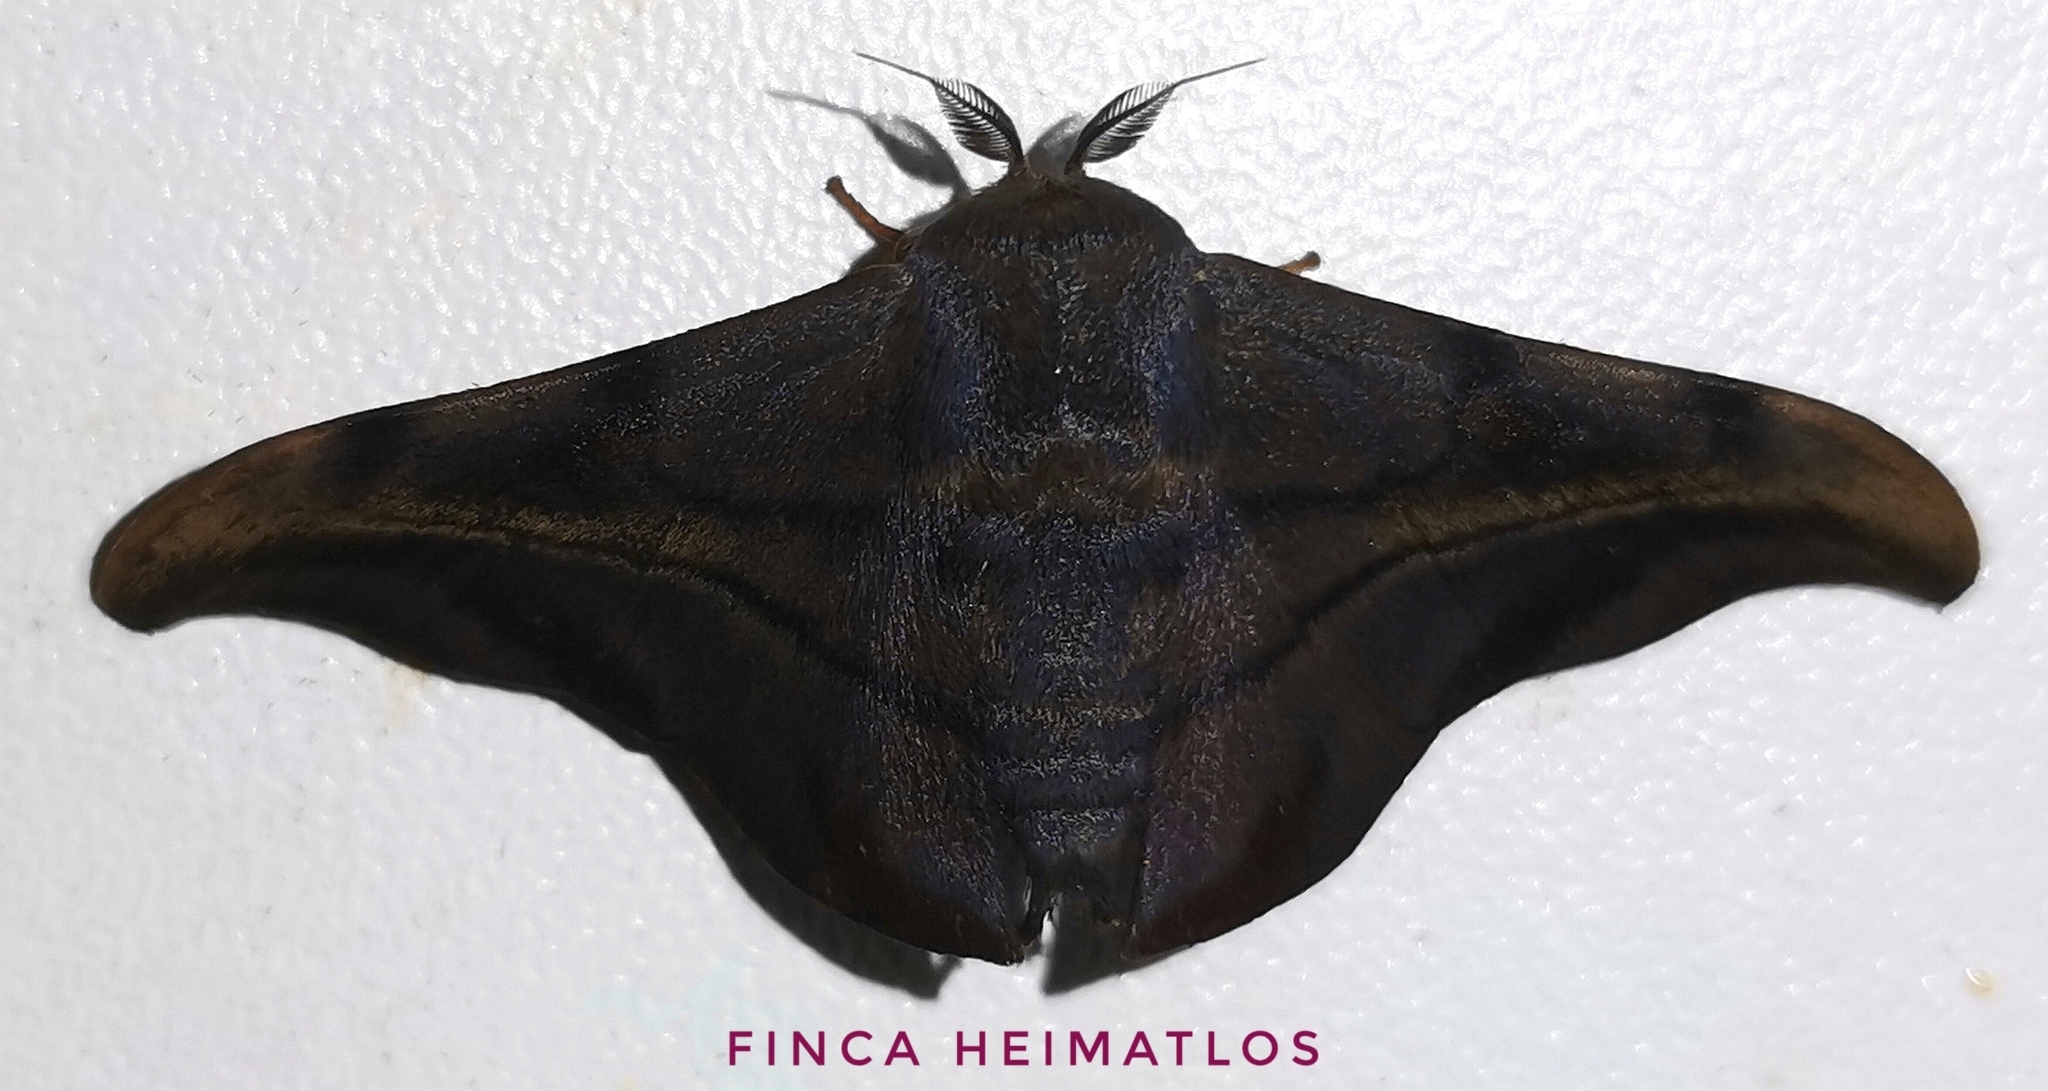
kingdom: Animalia
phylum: Arthropoda
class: Insecta
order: Lepidoptera
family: Mimallonidae
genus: Thaelia
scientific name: Thaelia subrubiginosa
